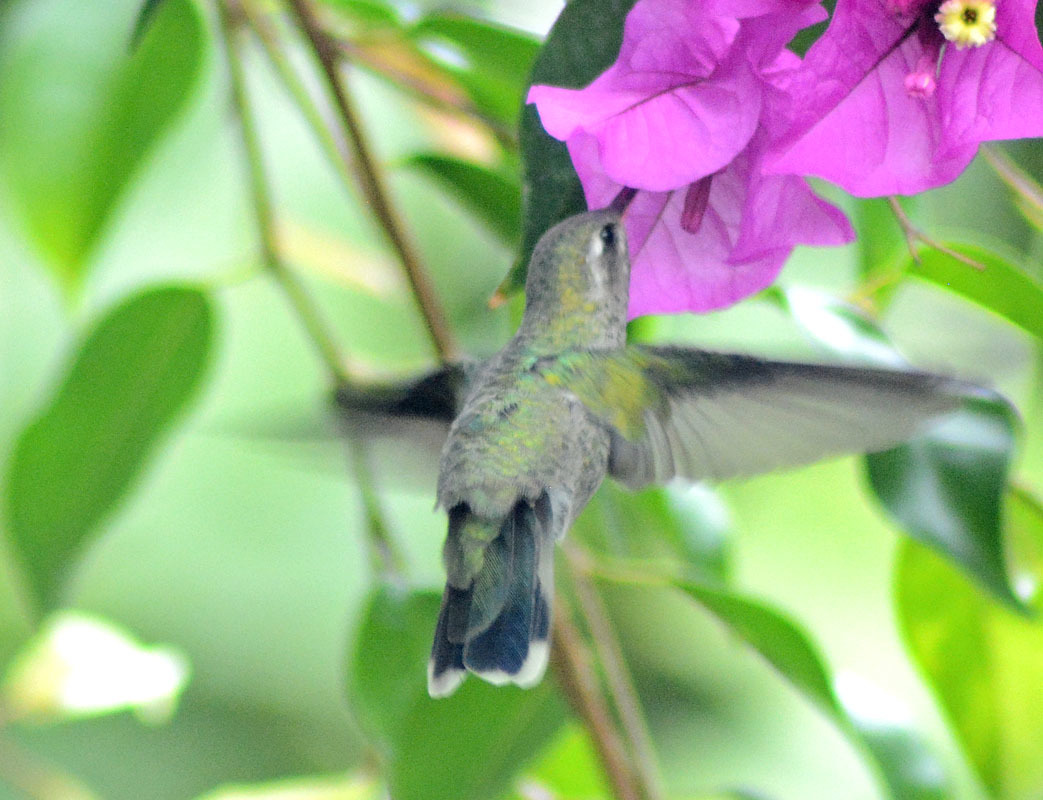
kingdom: Animalia
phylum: Chordata
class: Aves
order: Apodiformes
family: Trochilidae
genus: Cynanthus
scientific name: Cynanthus latirostris
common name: Broad-billed hummingbird
